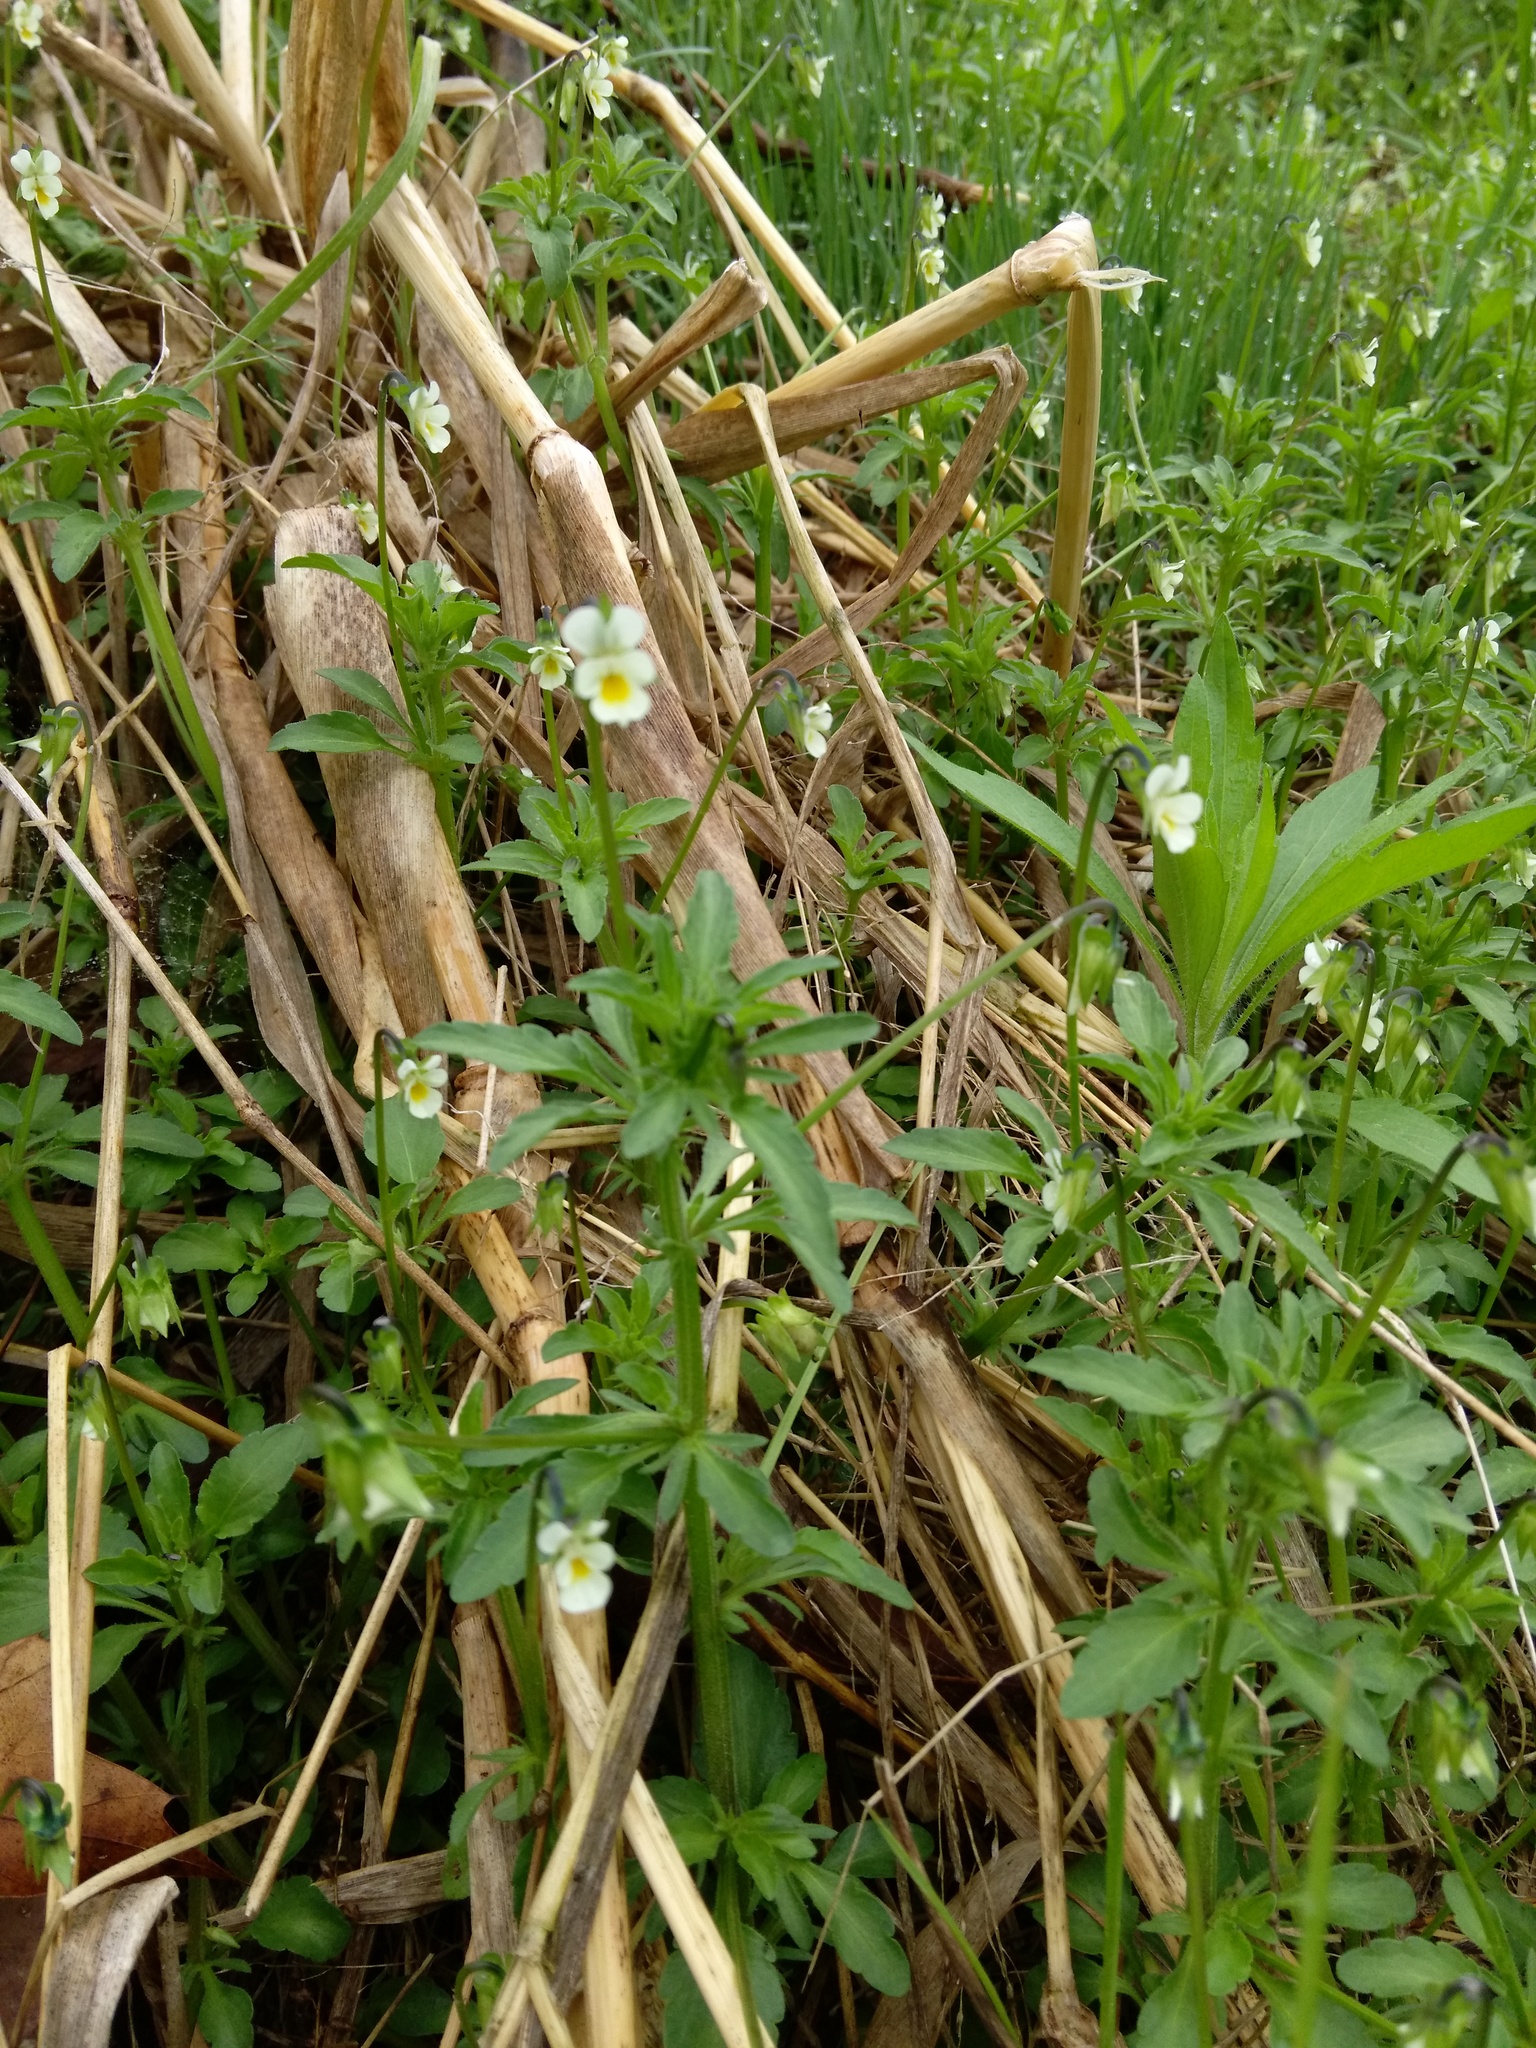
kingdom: Plantae
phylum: Tracheophyta
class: Magnoliopsida
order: Malpighiales
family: Violaceae
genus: Viola
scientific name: Viola arvensis
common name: Field pansy
